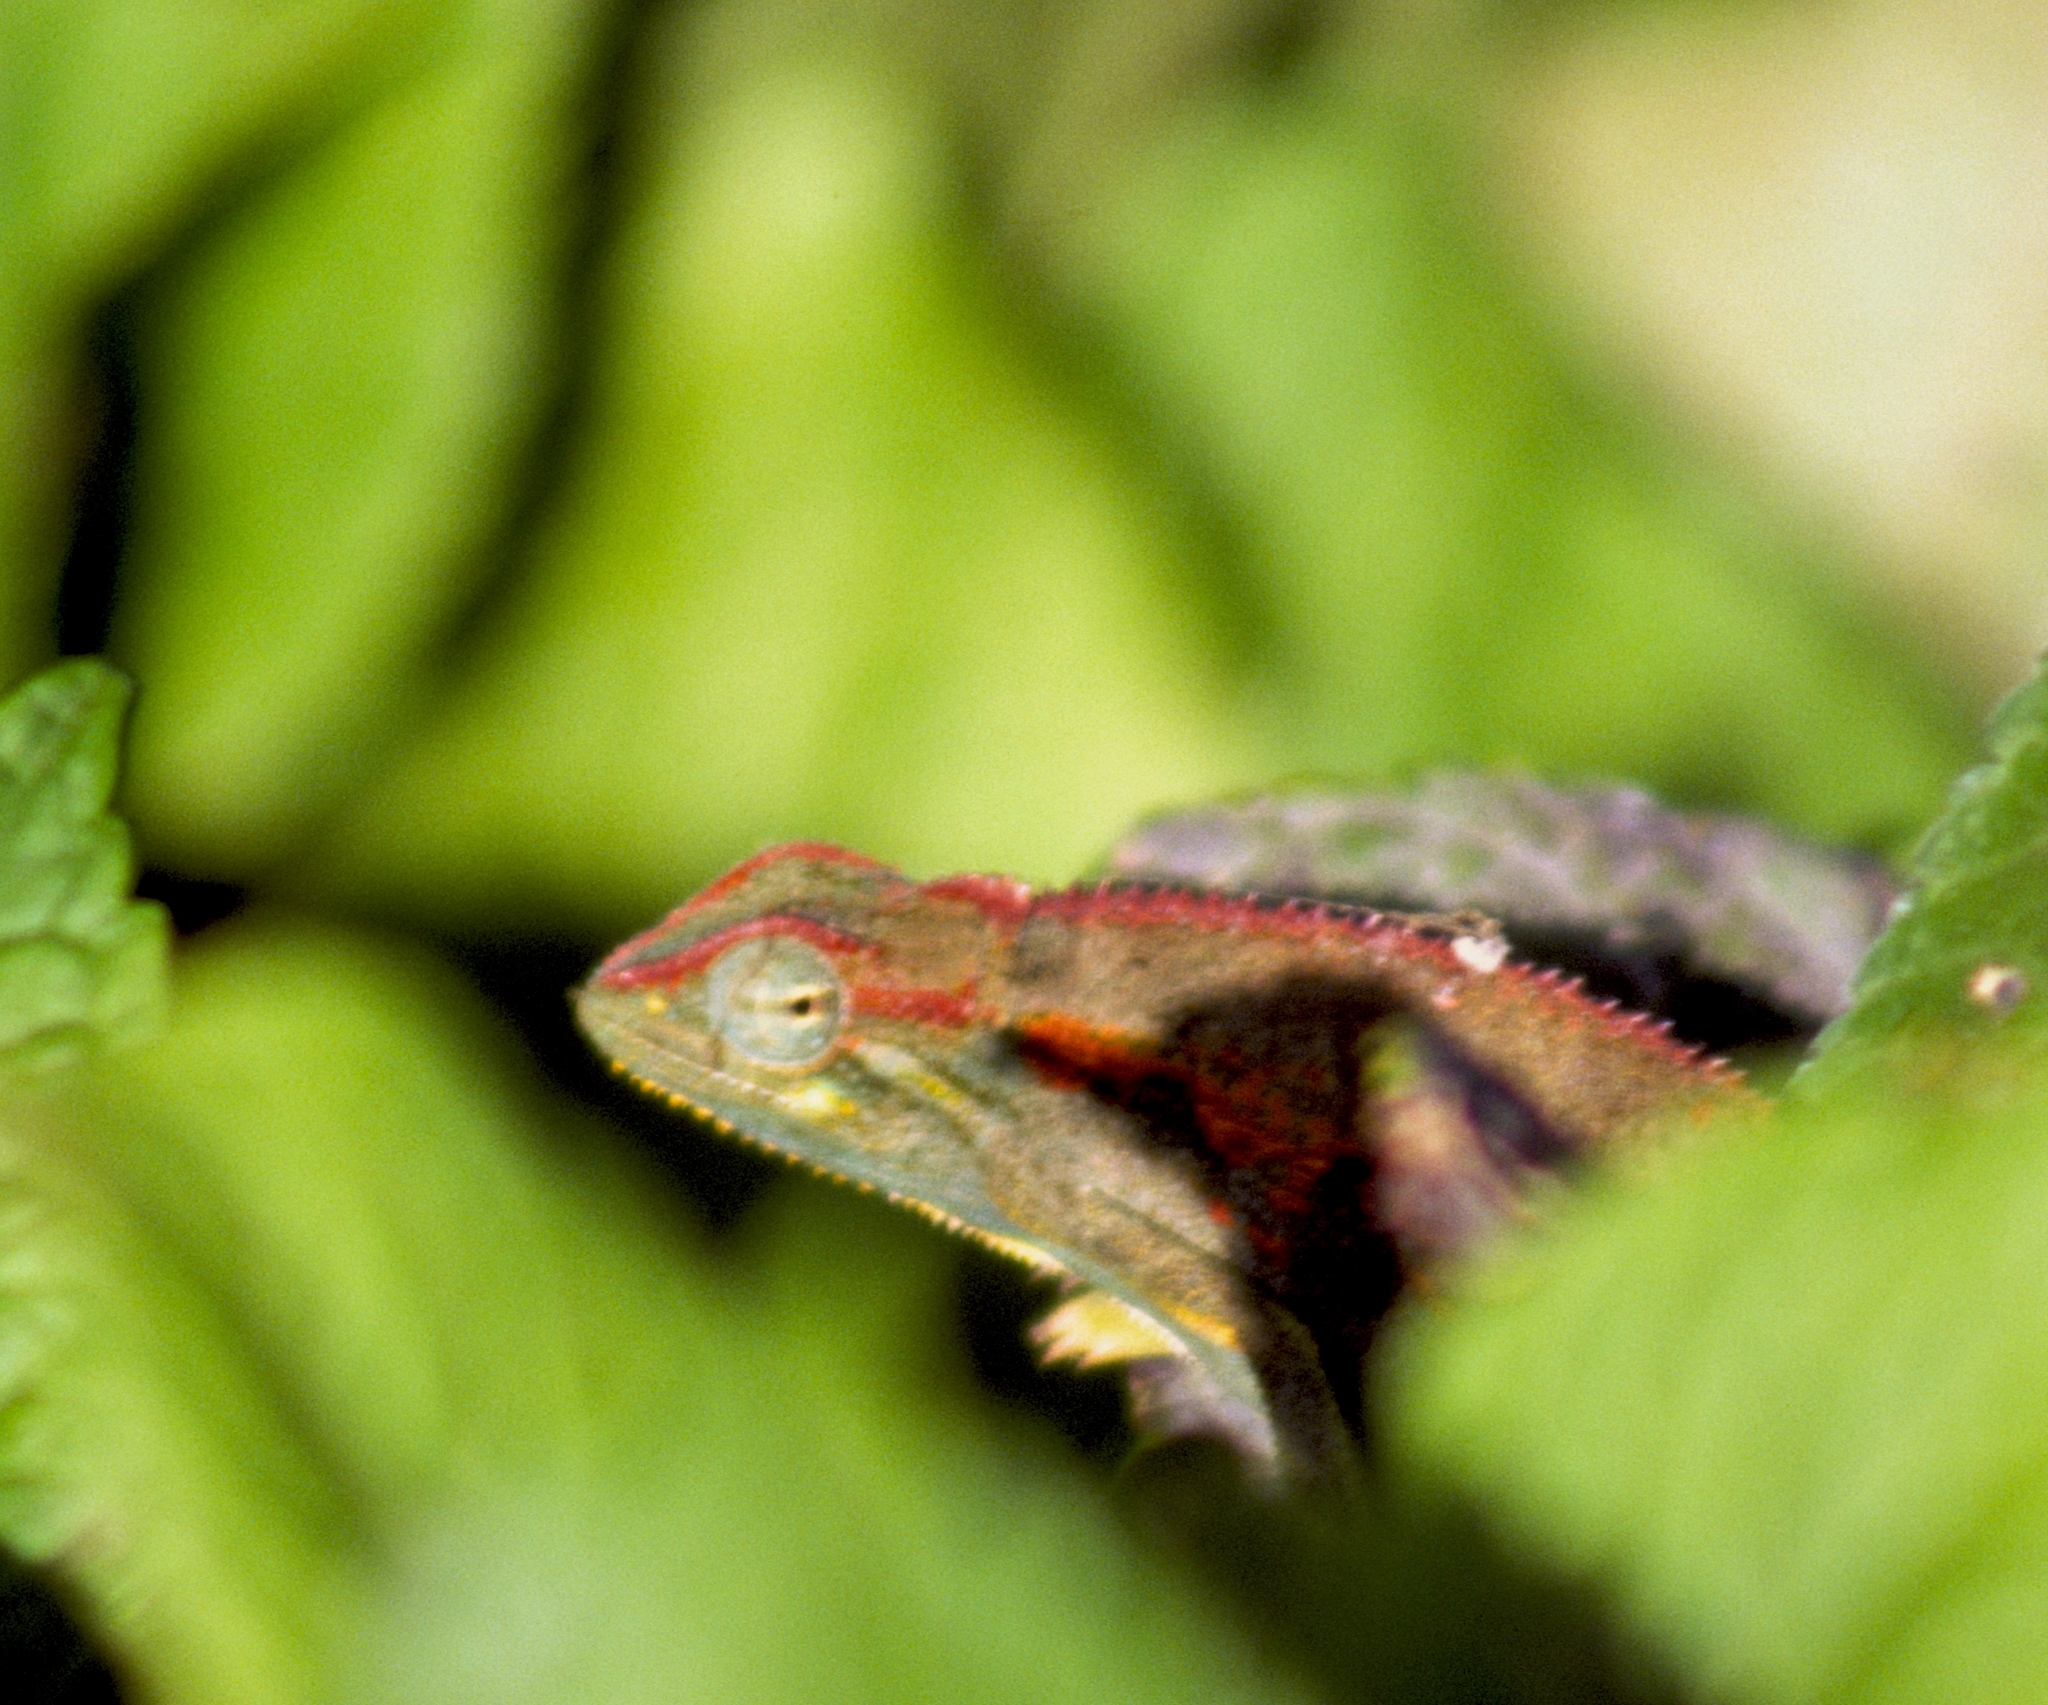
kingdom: Animalia
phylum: Chordata
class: Squamata
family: Chamaeleonidae
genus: Trioceros
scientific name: Trioceros ellioti
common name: Montane side-striped chameleon
